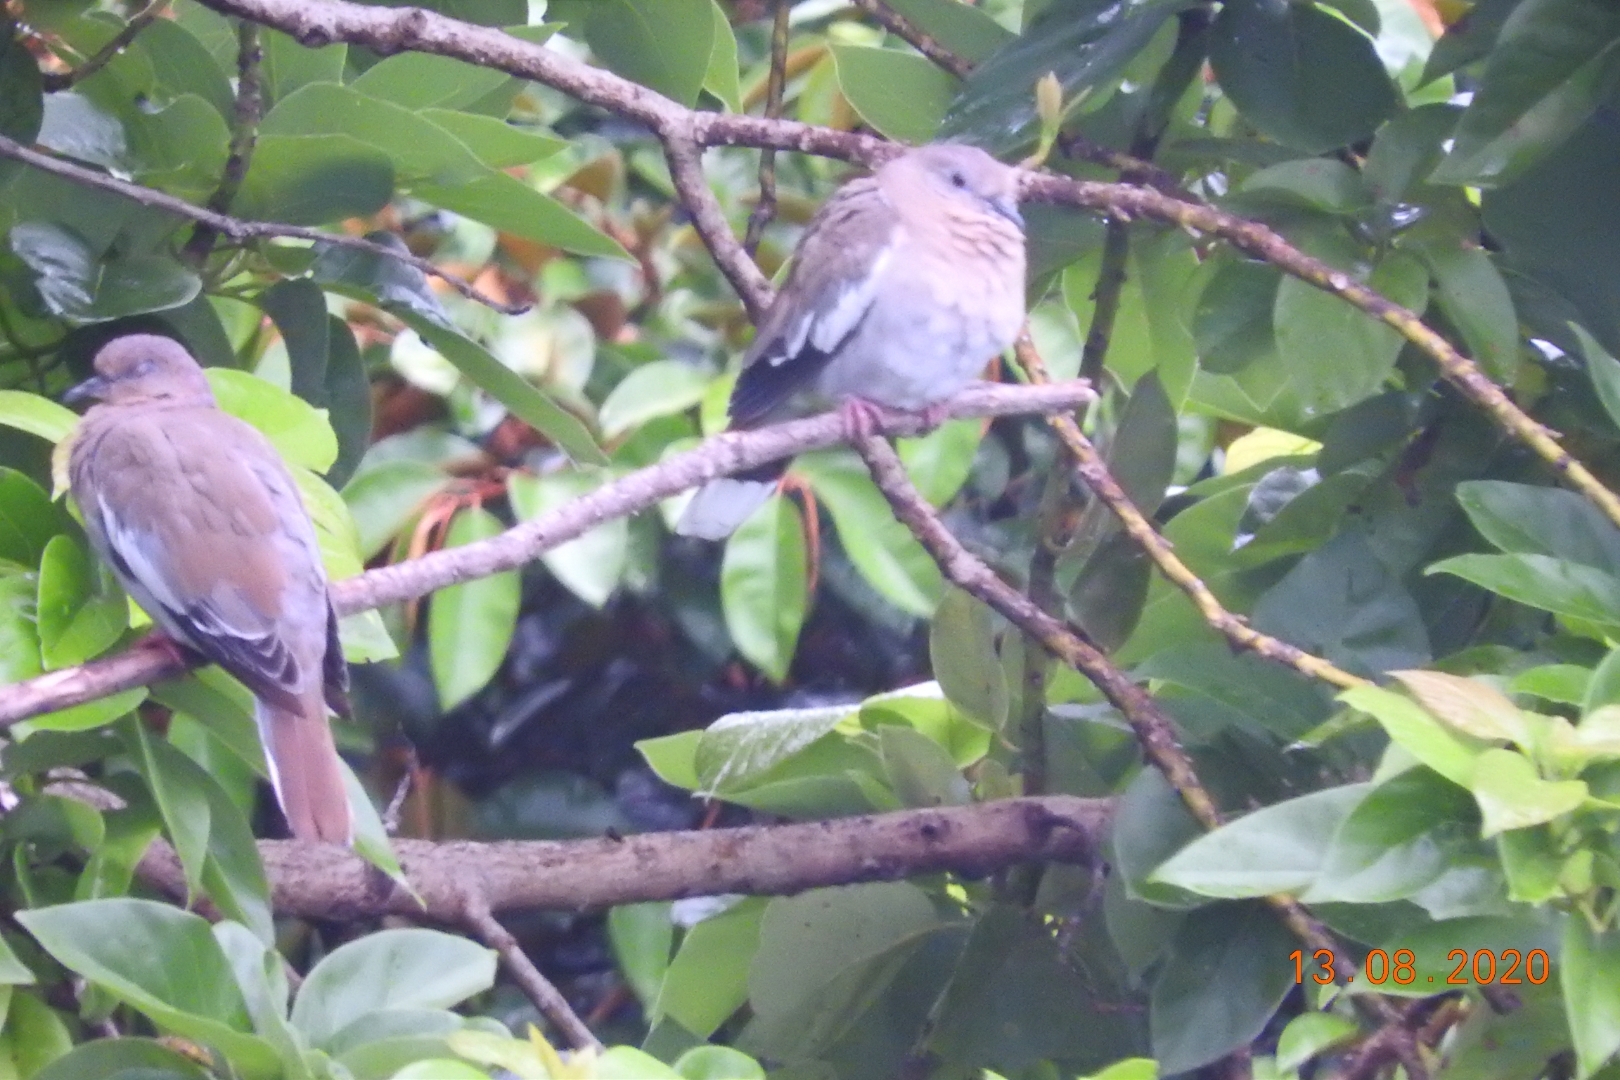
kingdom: Animalia
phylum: Chordata
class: Aves
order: Columbiformes
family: Columbidae
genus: Zenaida
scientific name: Zenaida asiatica
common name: White-winged dove
